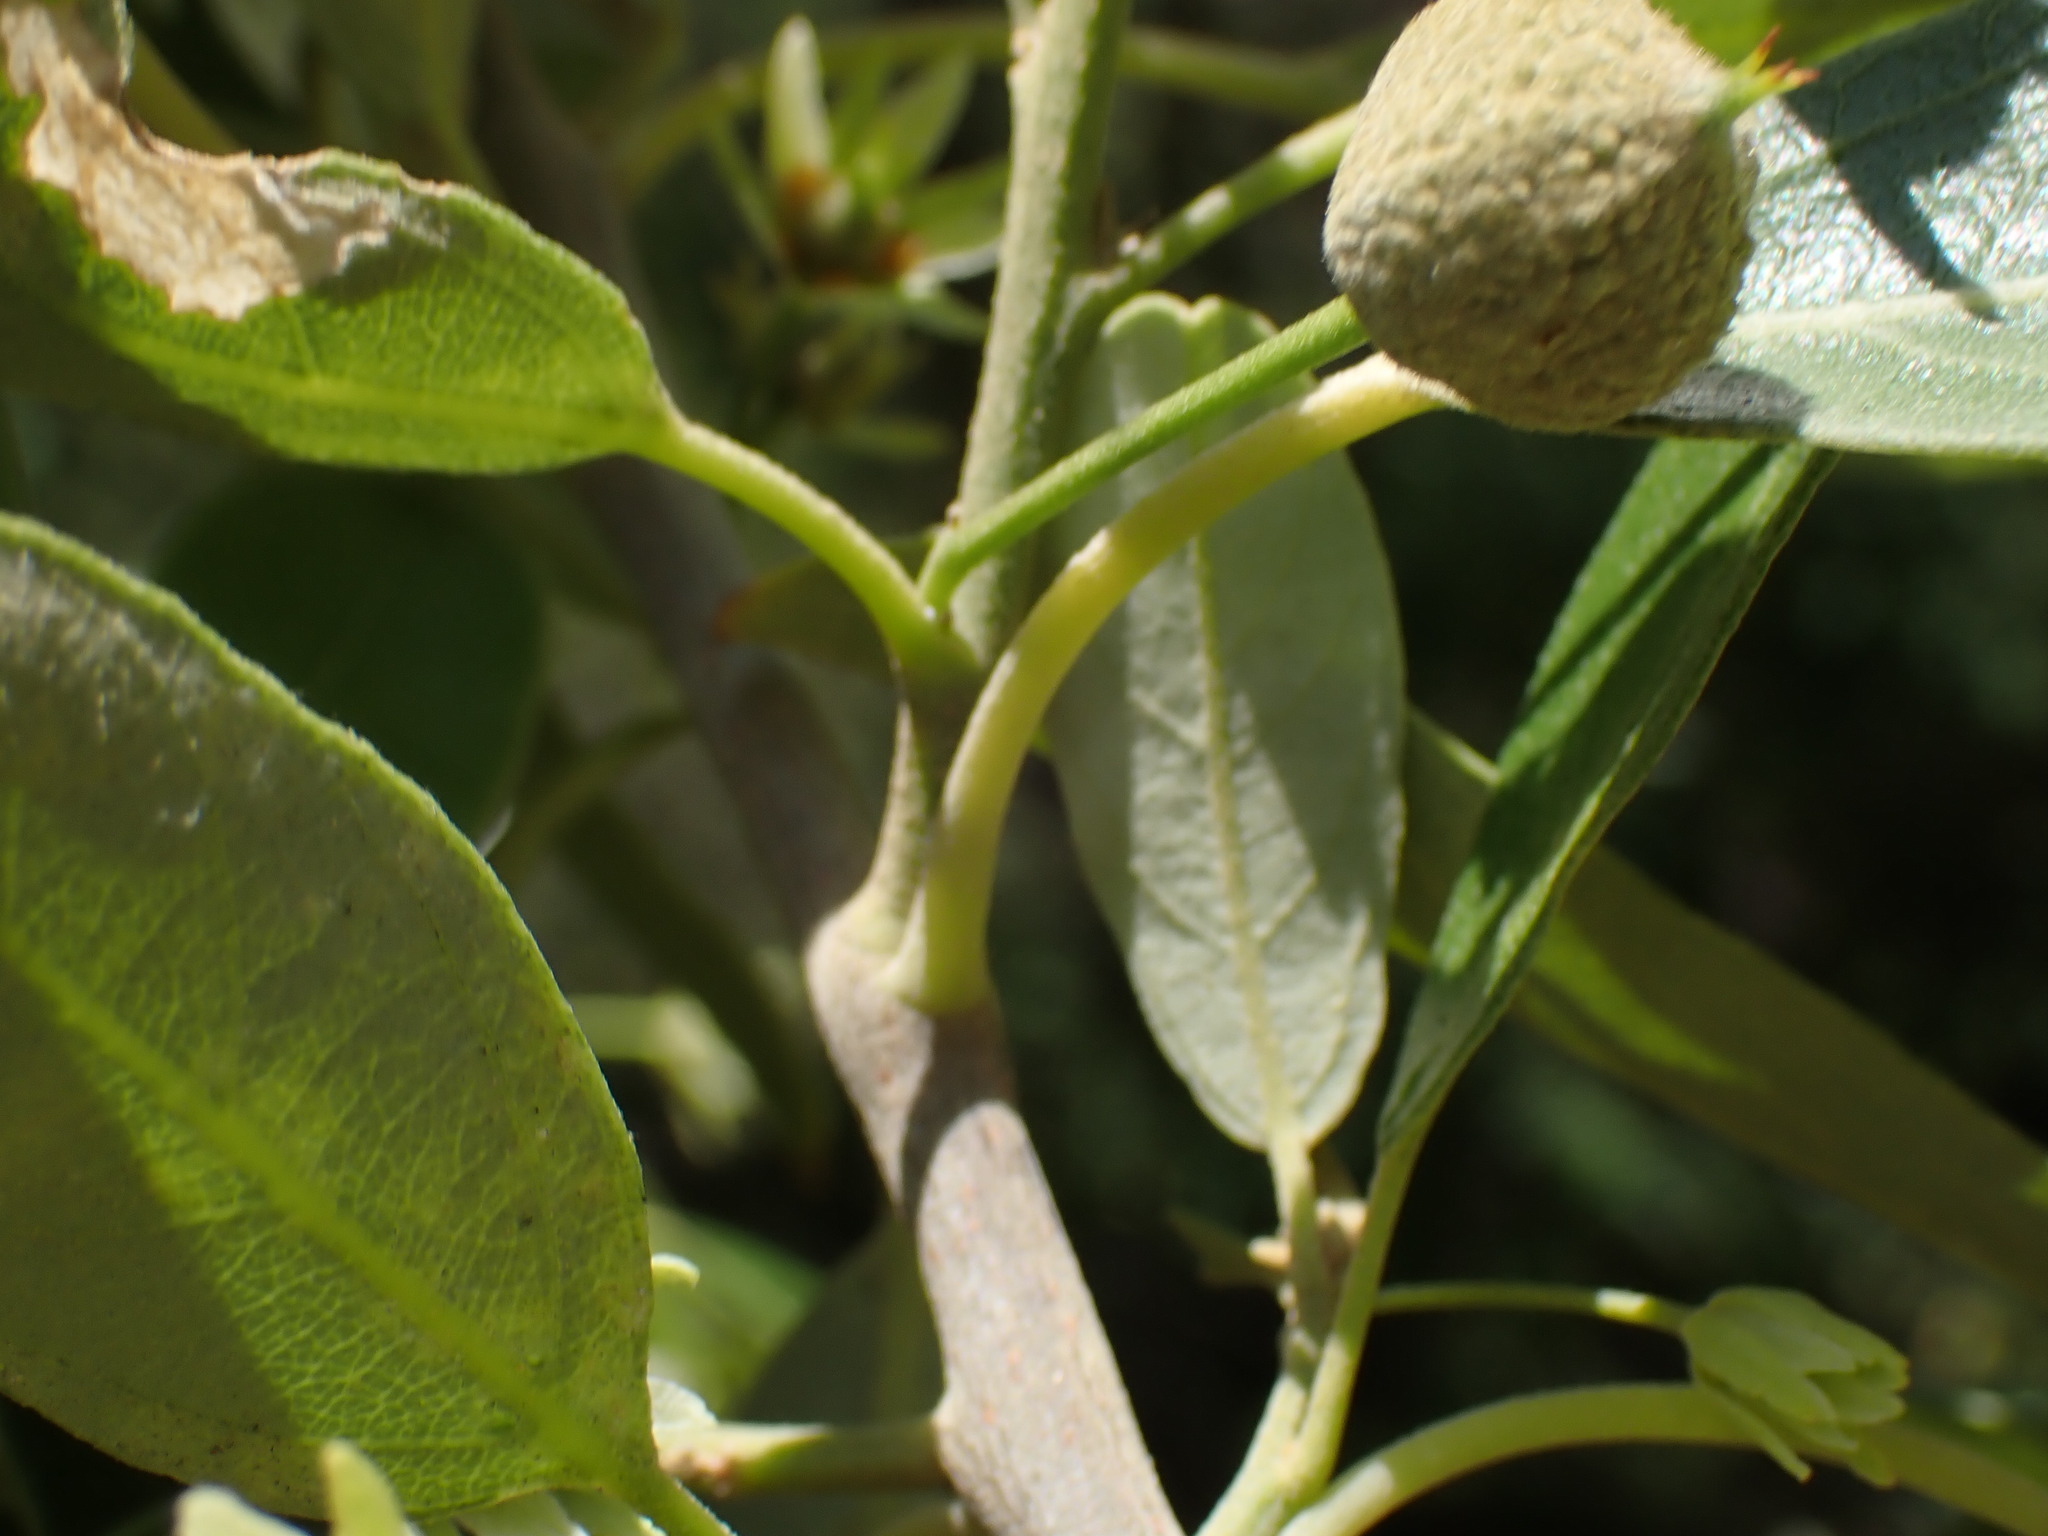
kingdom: Plantae
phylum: Tracheophyta
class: Magnoliopsida
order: Malpighiales
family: Achariaceae
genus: Kiggelaria
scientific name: Kiggelaria africana
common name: Wild peach
